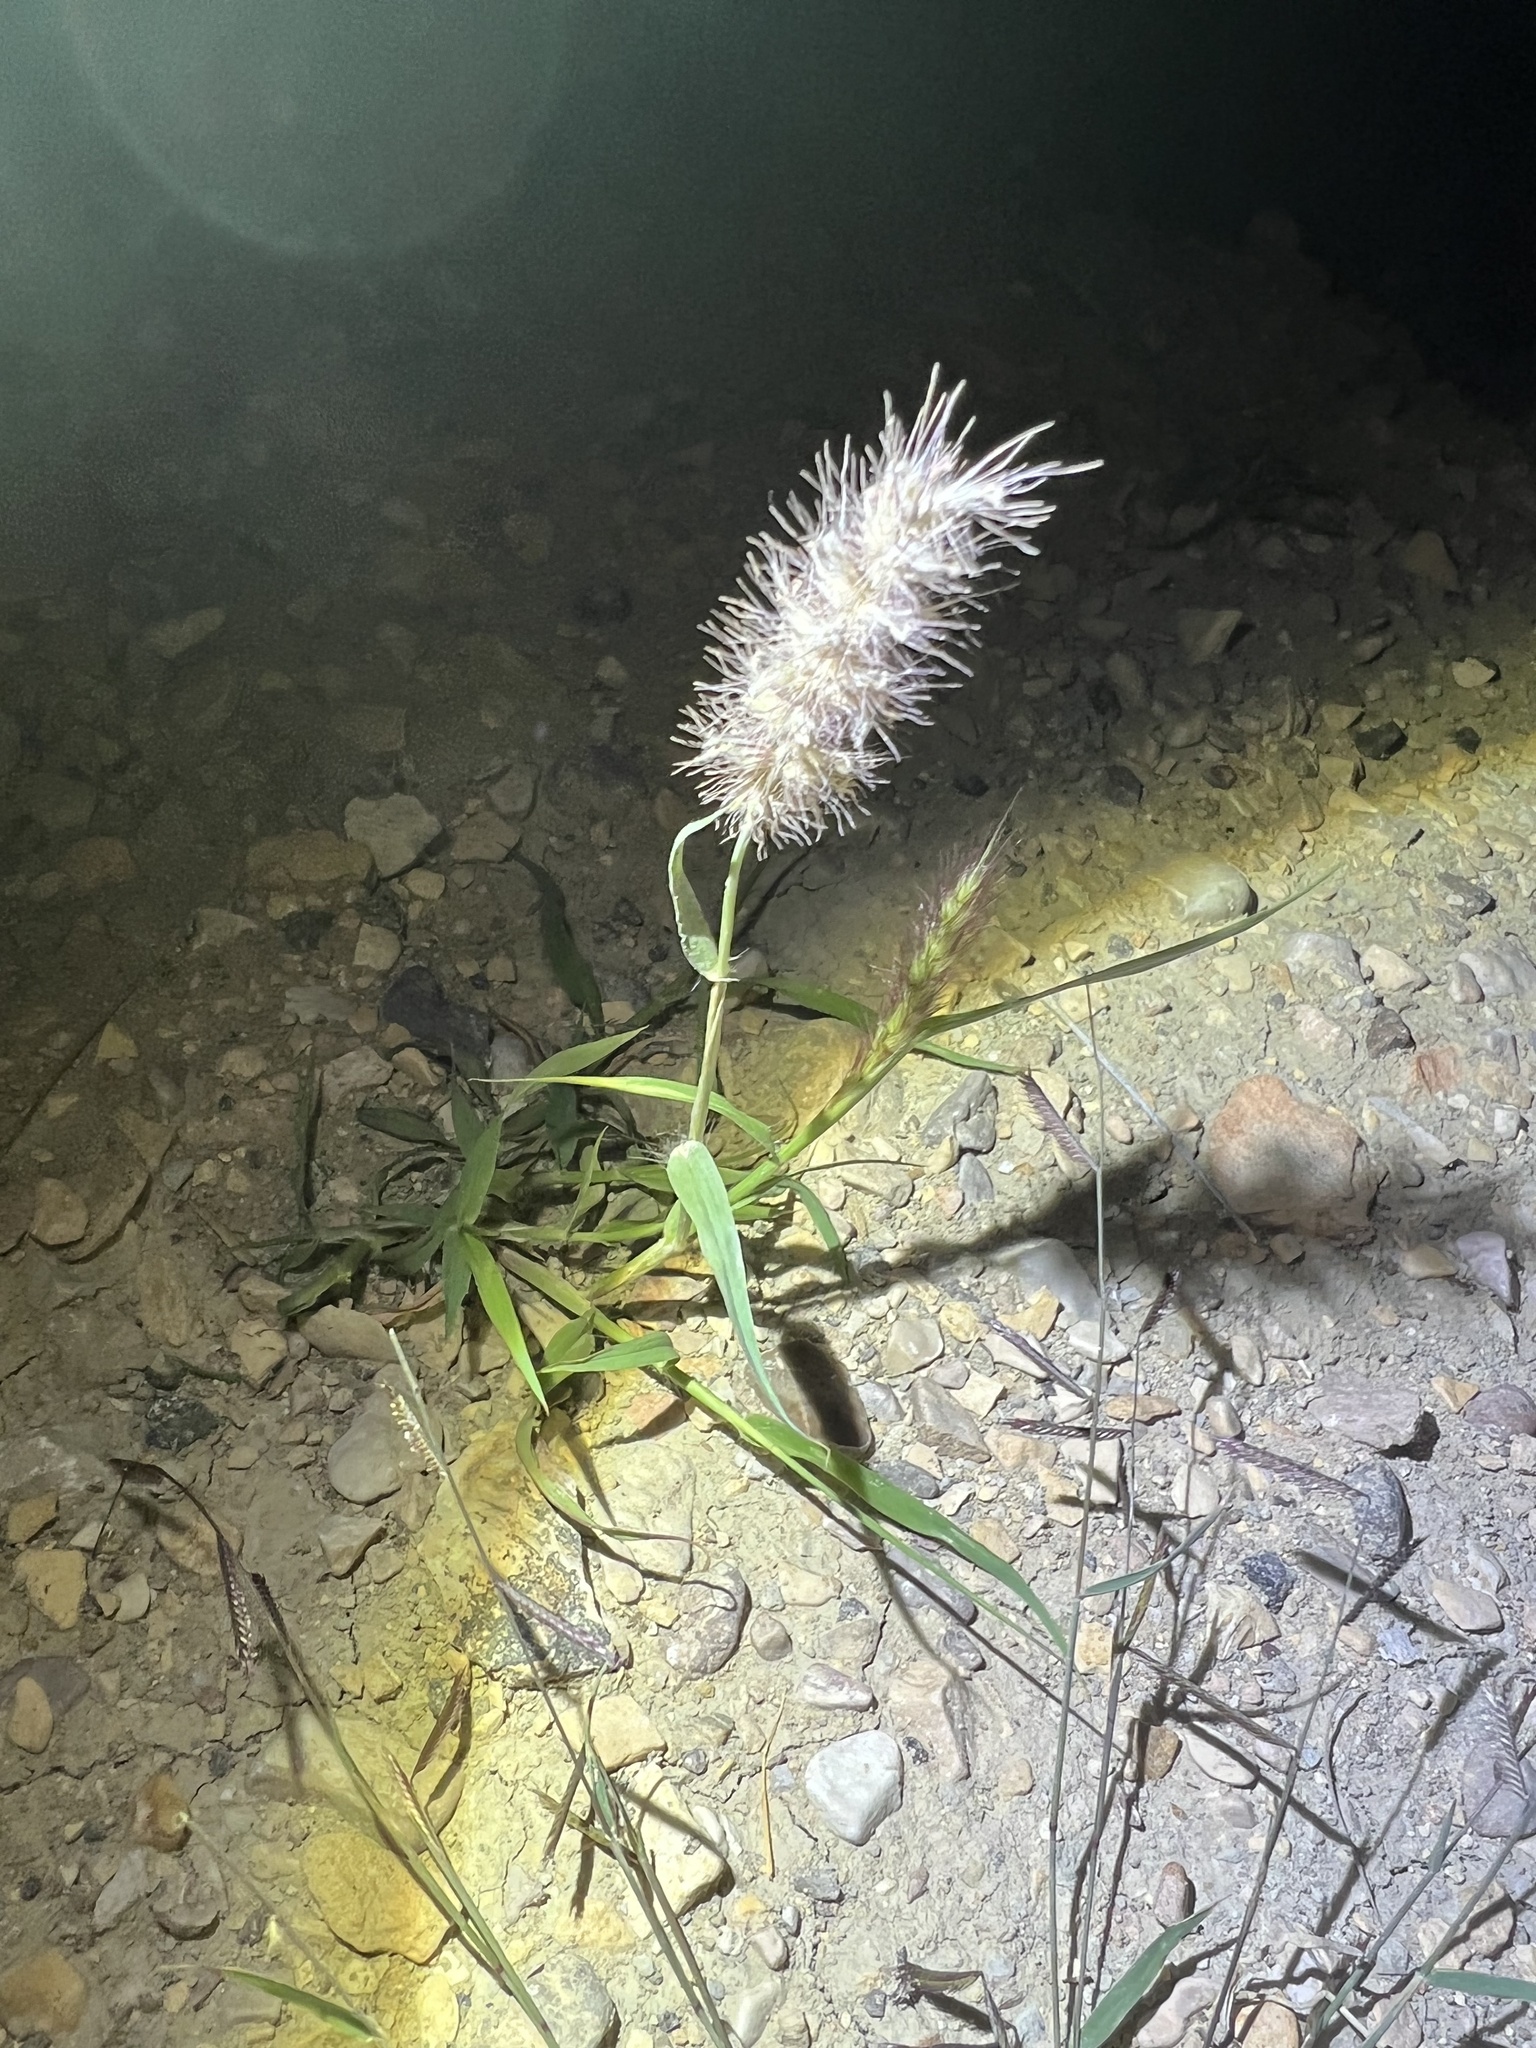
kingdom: Plantae
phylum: Tracheophyta
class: Liliopsida
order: Poales
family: Poaceae
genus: Cenchrus
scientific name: Cenchrus ciliaris
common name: Buffelgrass
